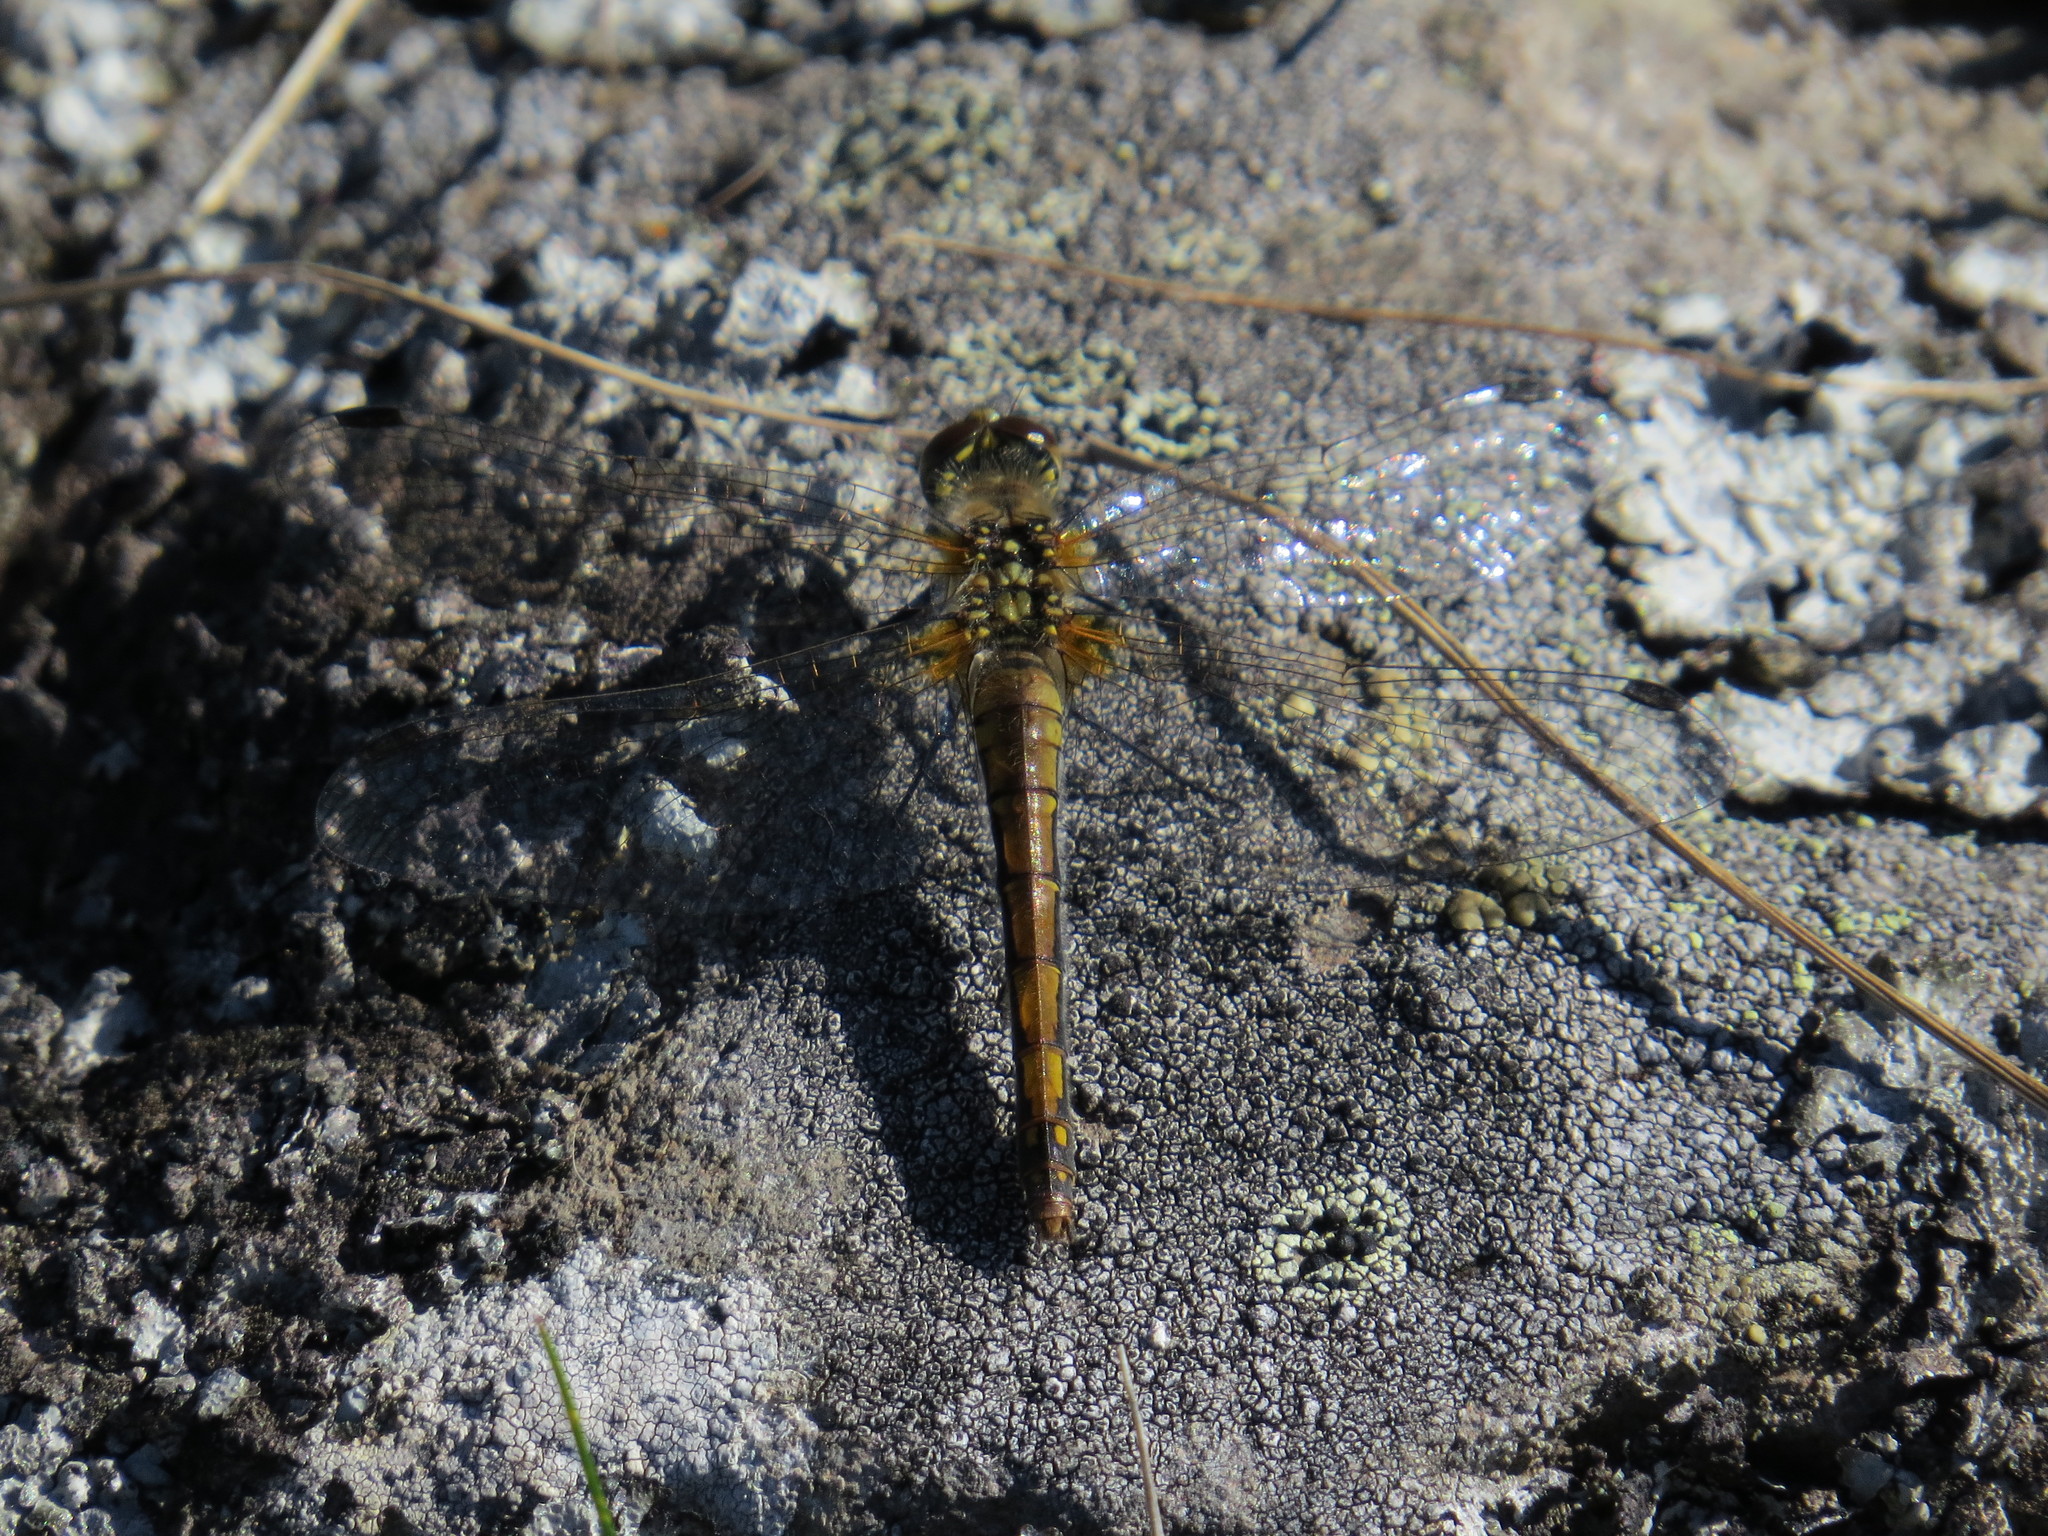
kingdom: Animalia
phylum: Arthropoda
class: Insecta
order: Odonata
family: Libellulidae
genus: Sympetrum
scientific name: Sympetrum danae
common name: Black darter
